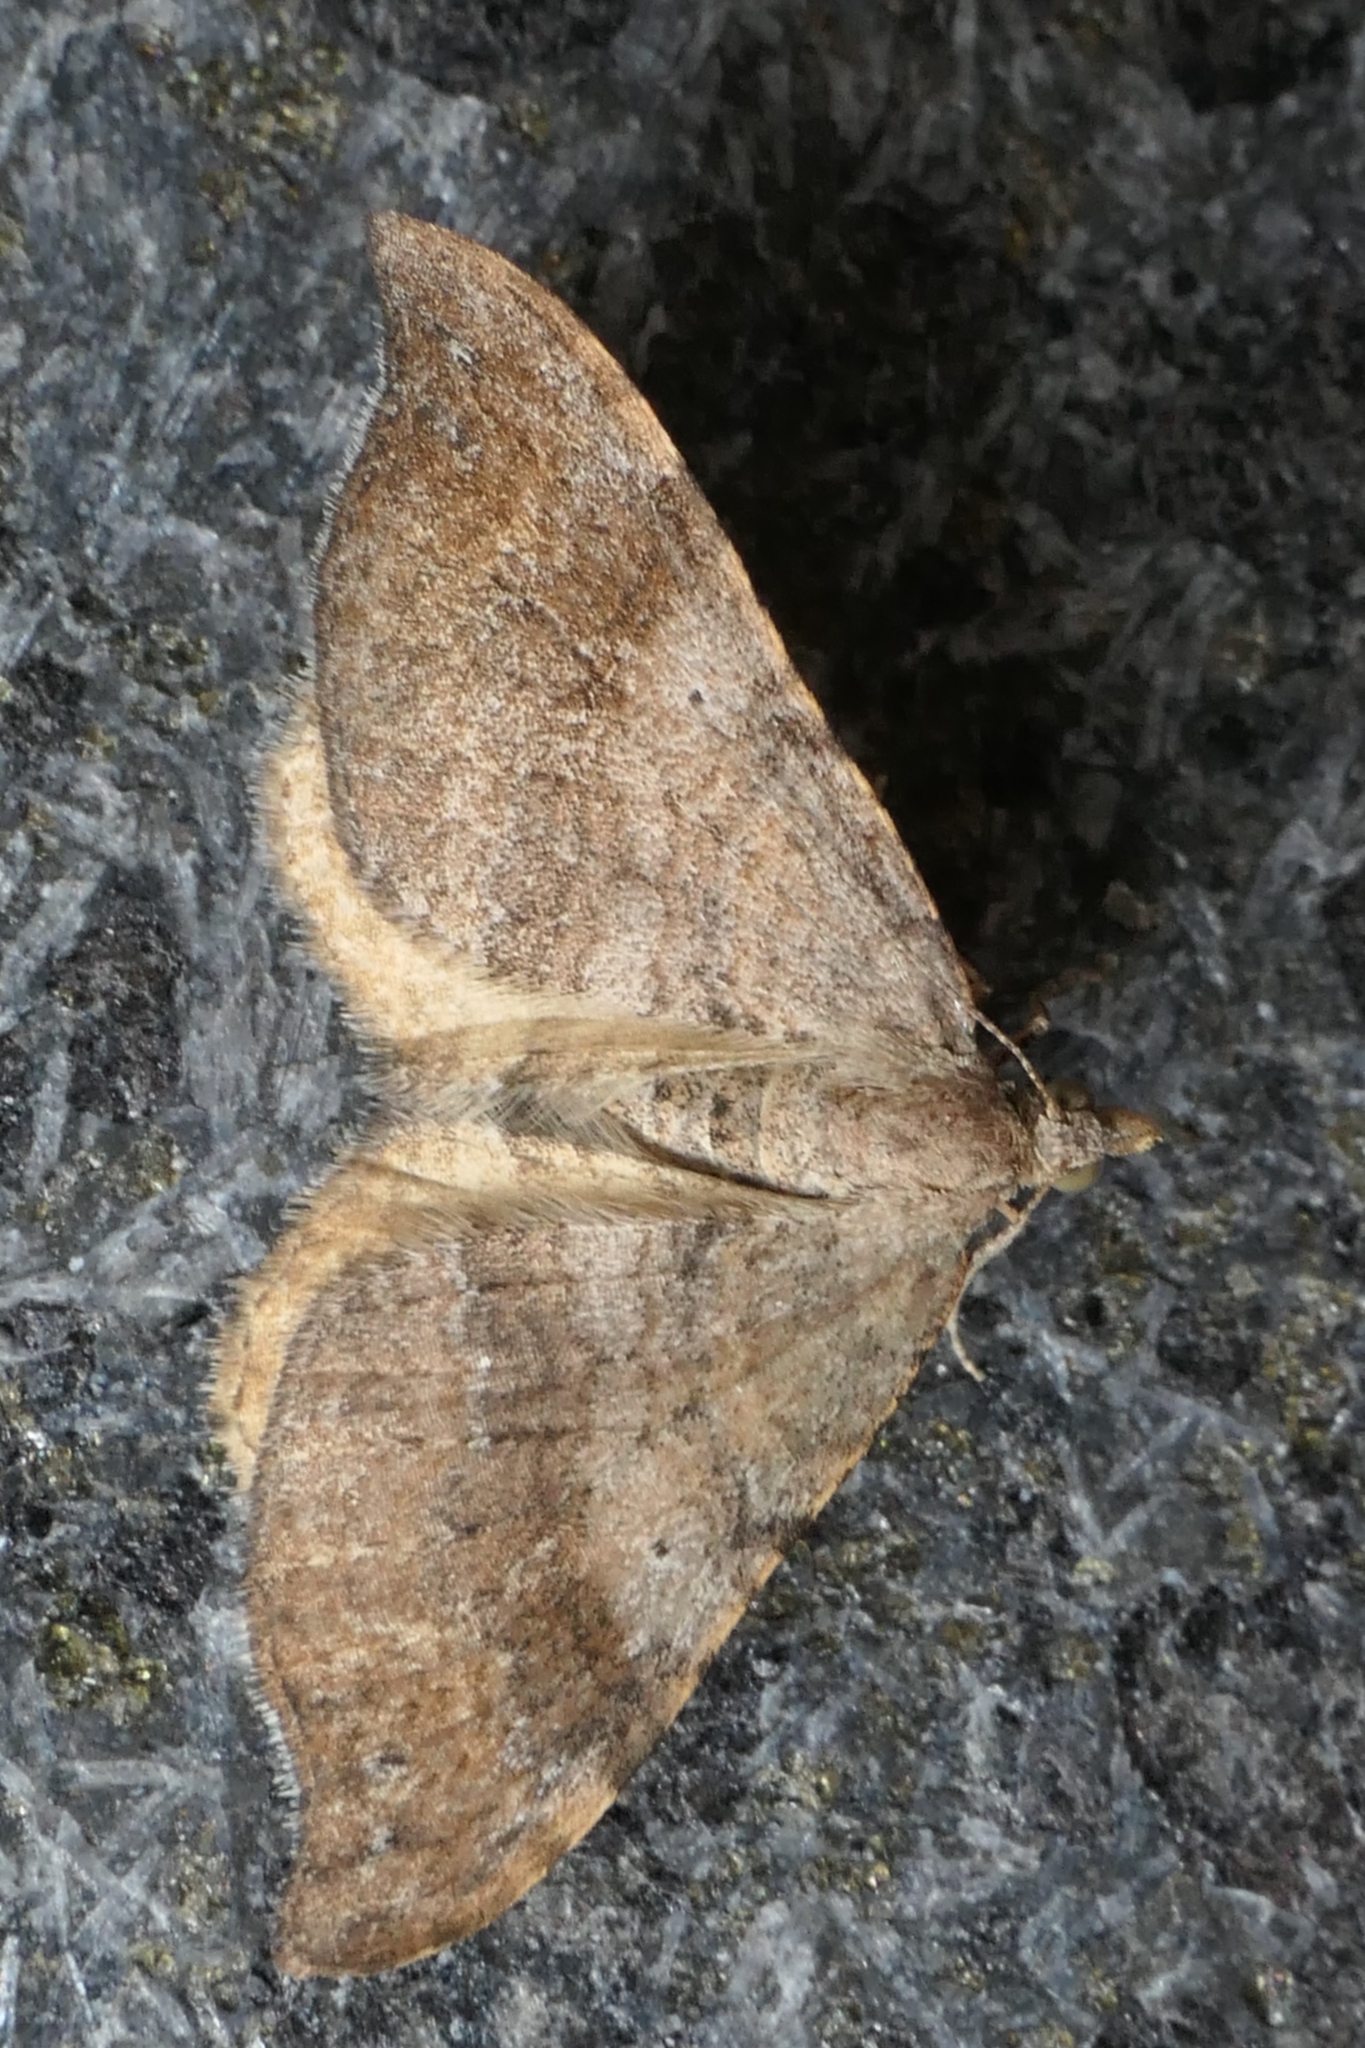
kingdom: Animalia
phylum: Arthropoda
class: Insecta
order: Lepidoptera
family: Geometridae
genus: Homodotis
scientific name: Homodotis megaspilata
